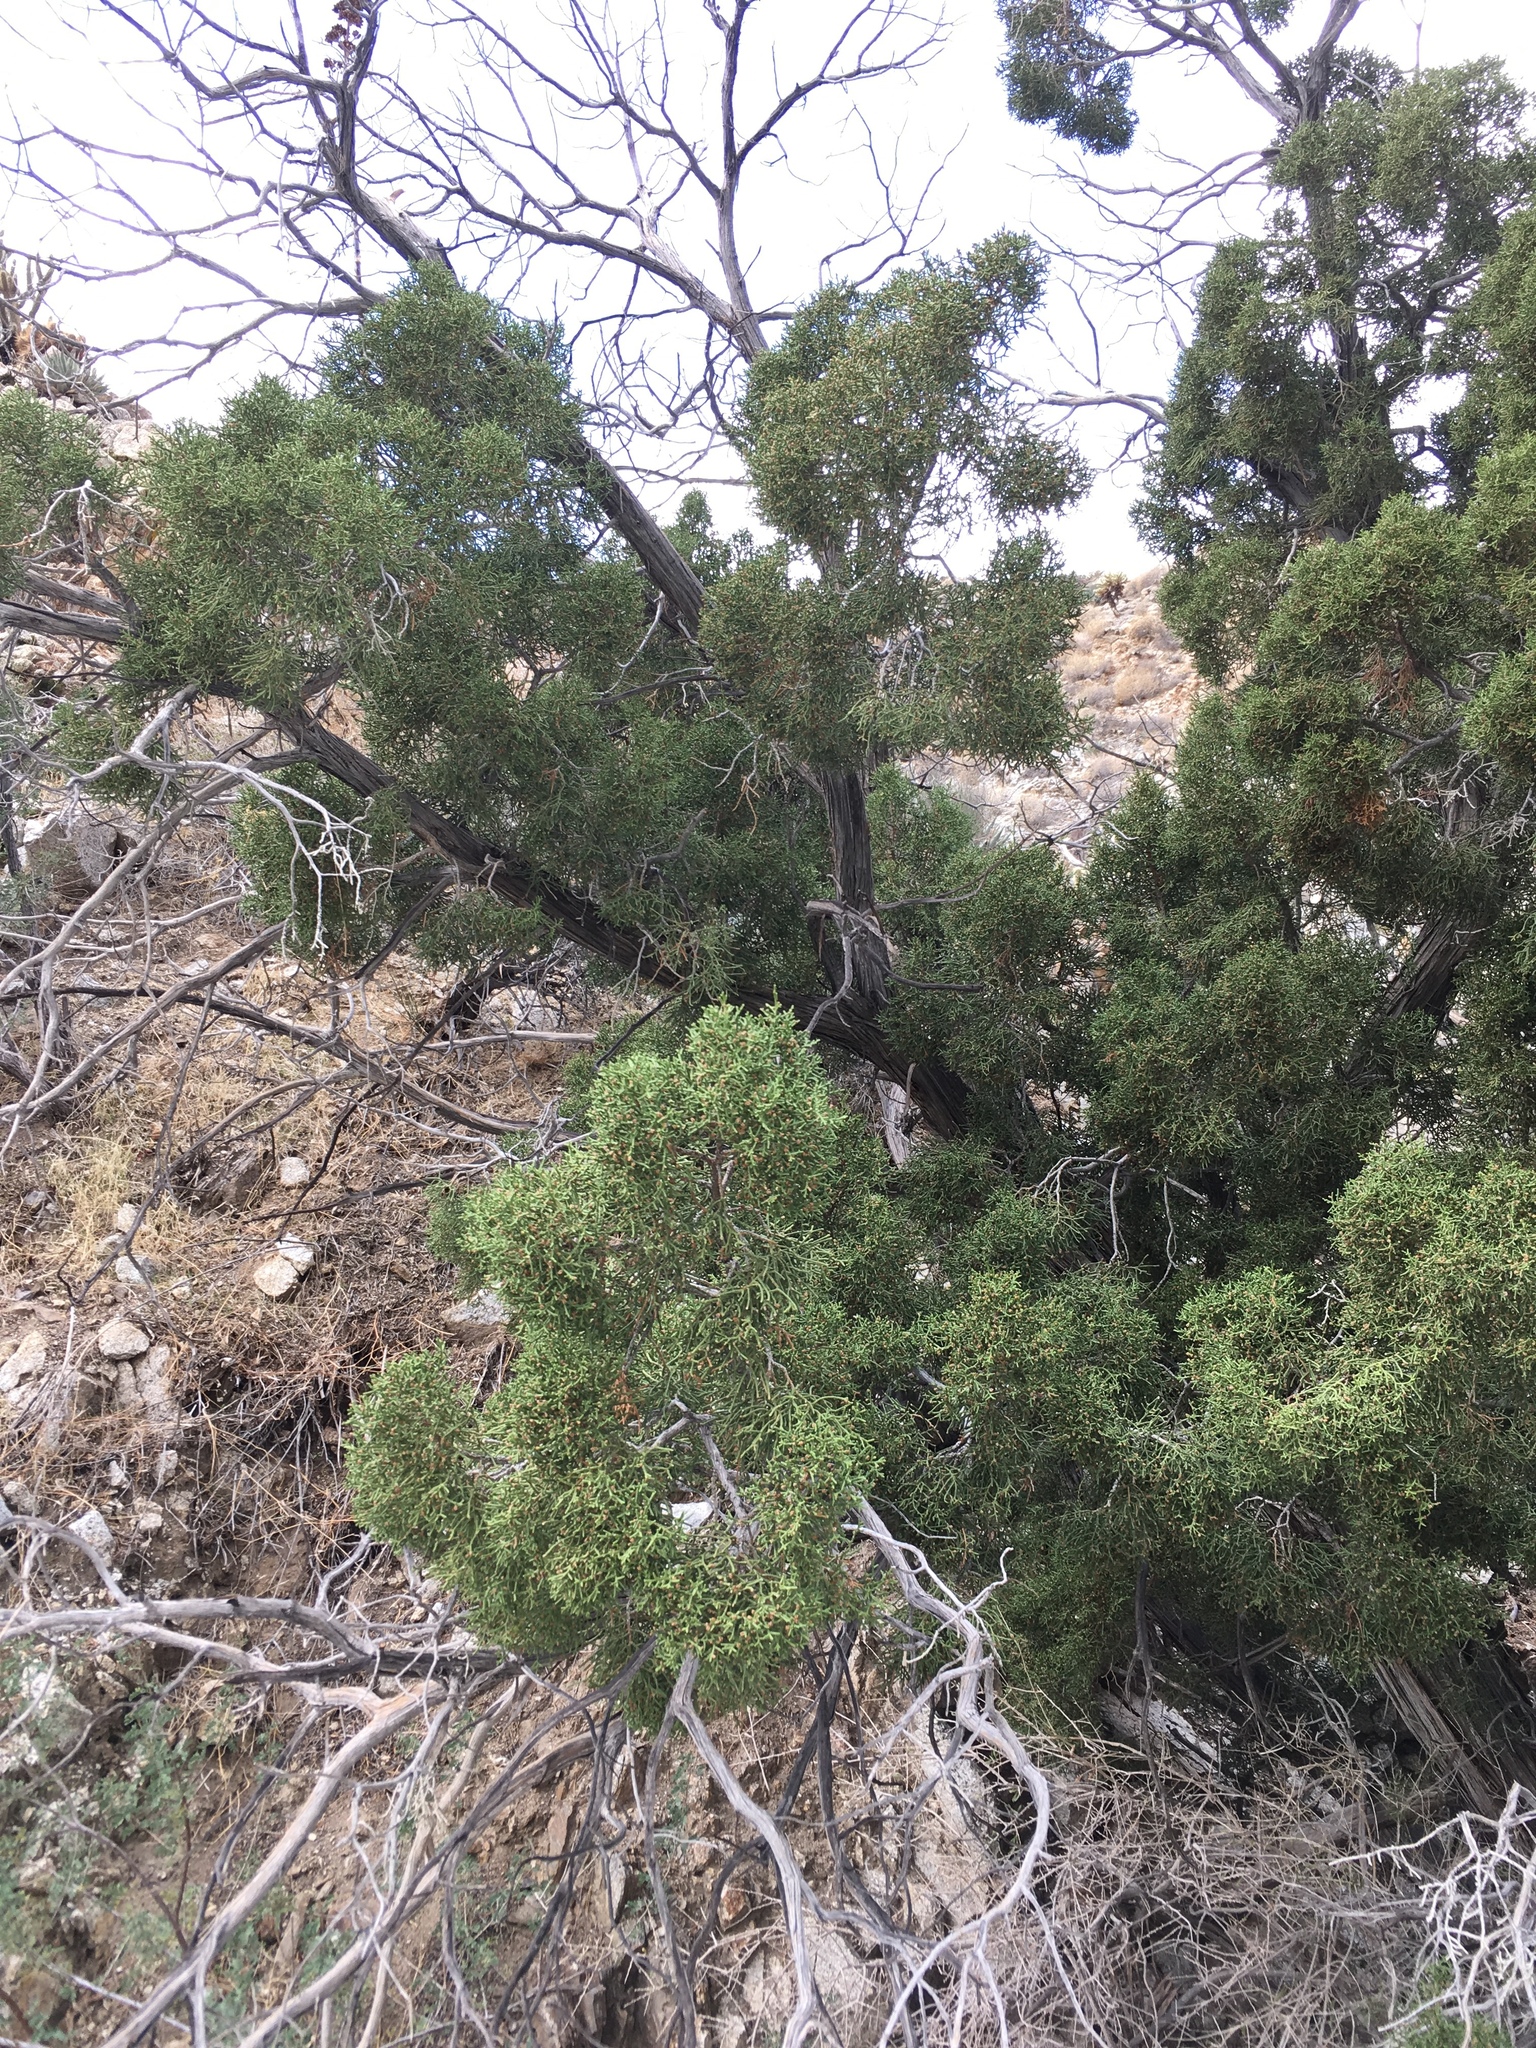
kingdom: Plantae
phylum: Tracheophyta
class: Pinopsida
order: Pinales
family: Cupressaceae
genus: Juniperus
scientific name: Juniperus californica
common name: California juniper
